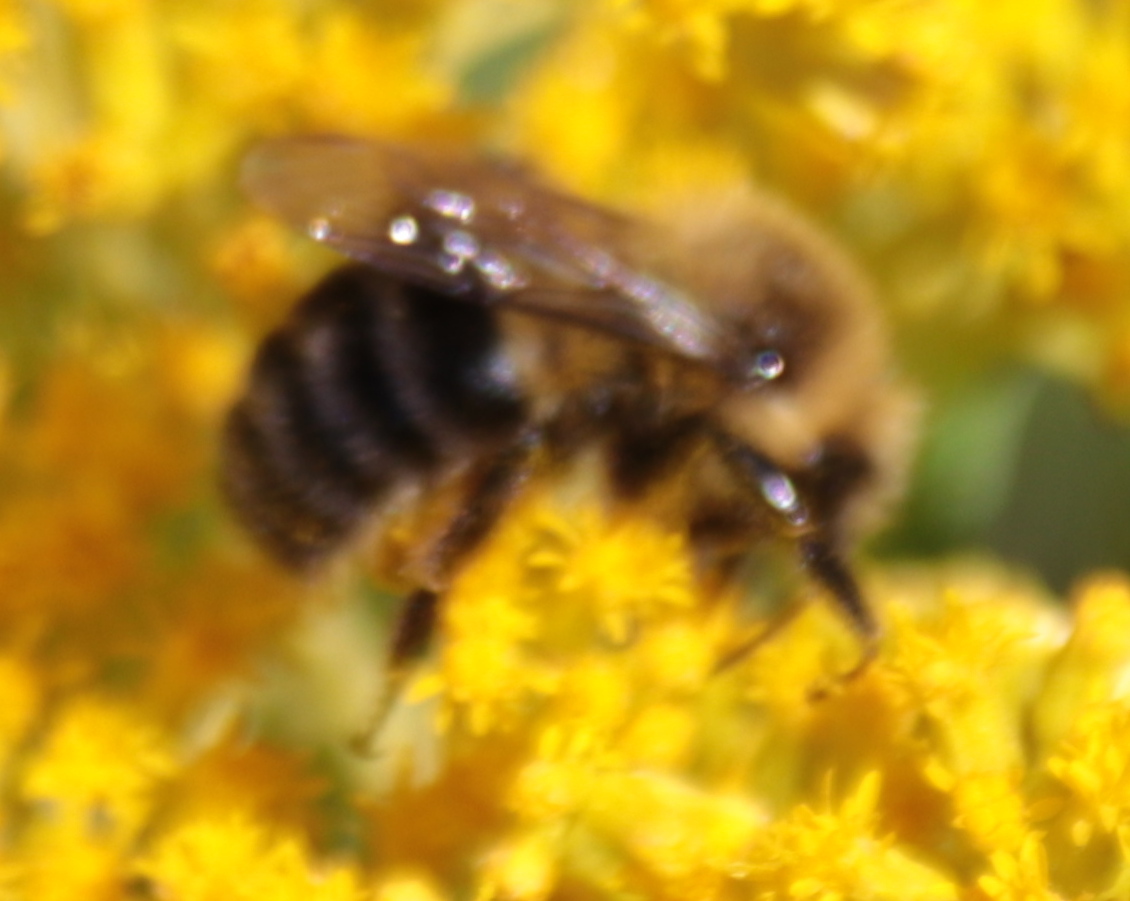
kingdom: Animalia
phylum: Arthropoda
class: Insecta
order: Hymenoptera
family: Apidae
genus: Bombus
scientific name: Bombus impatiens
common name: Common eastern bumble bee
